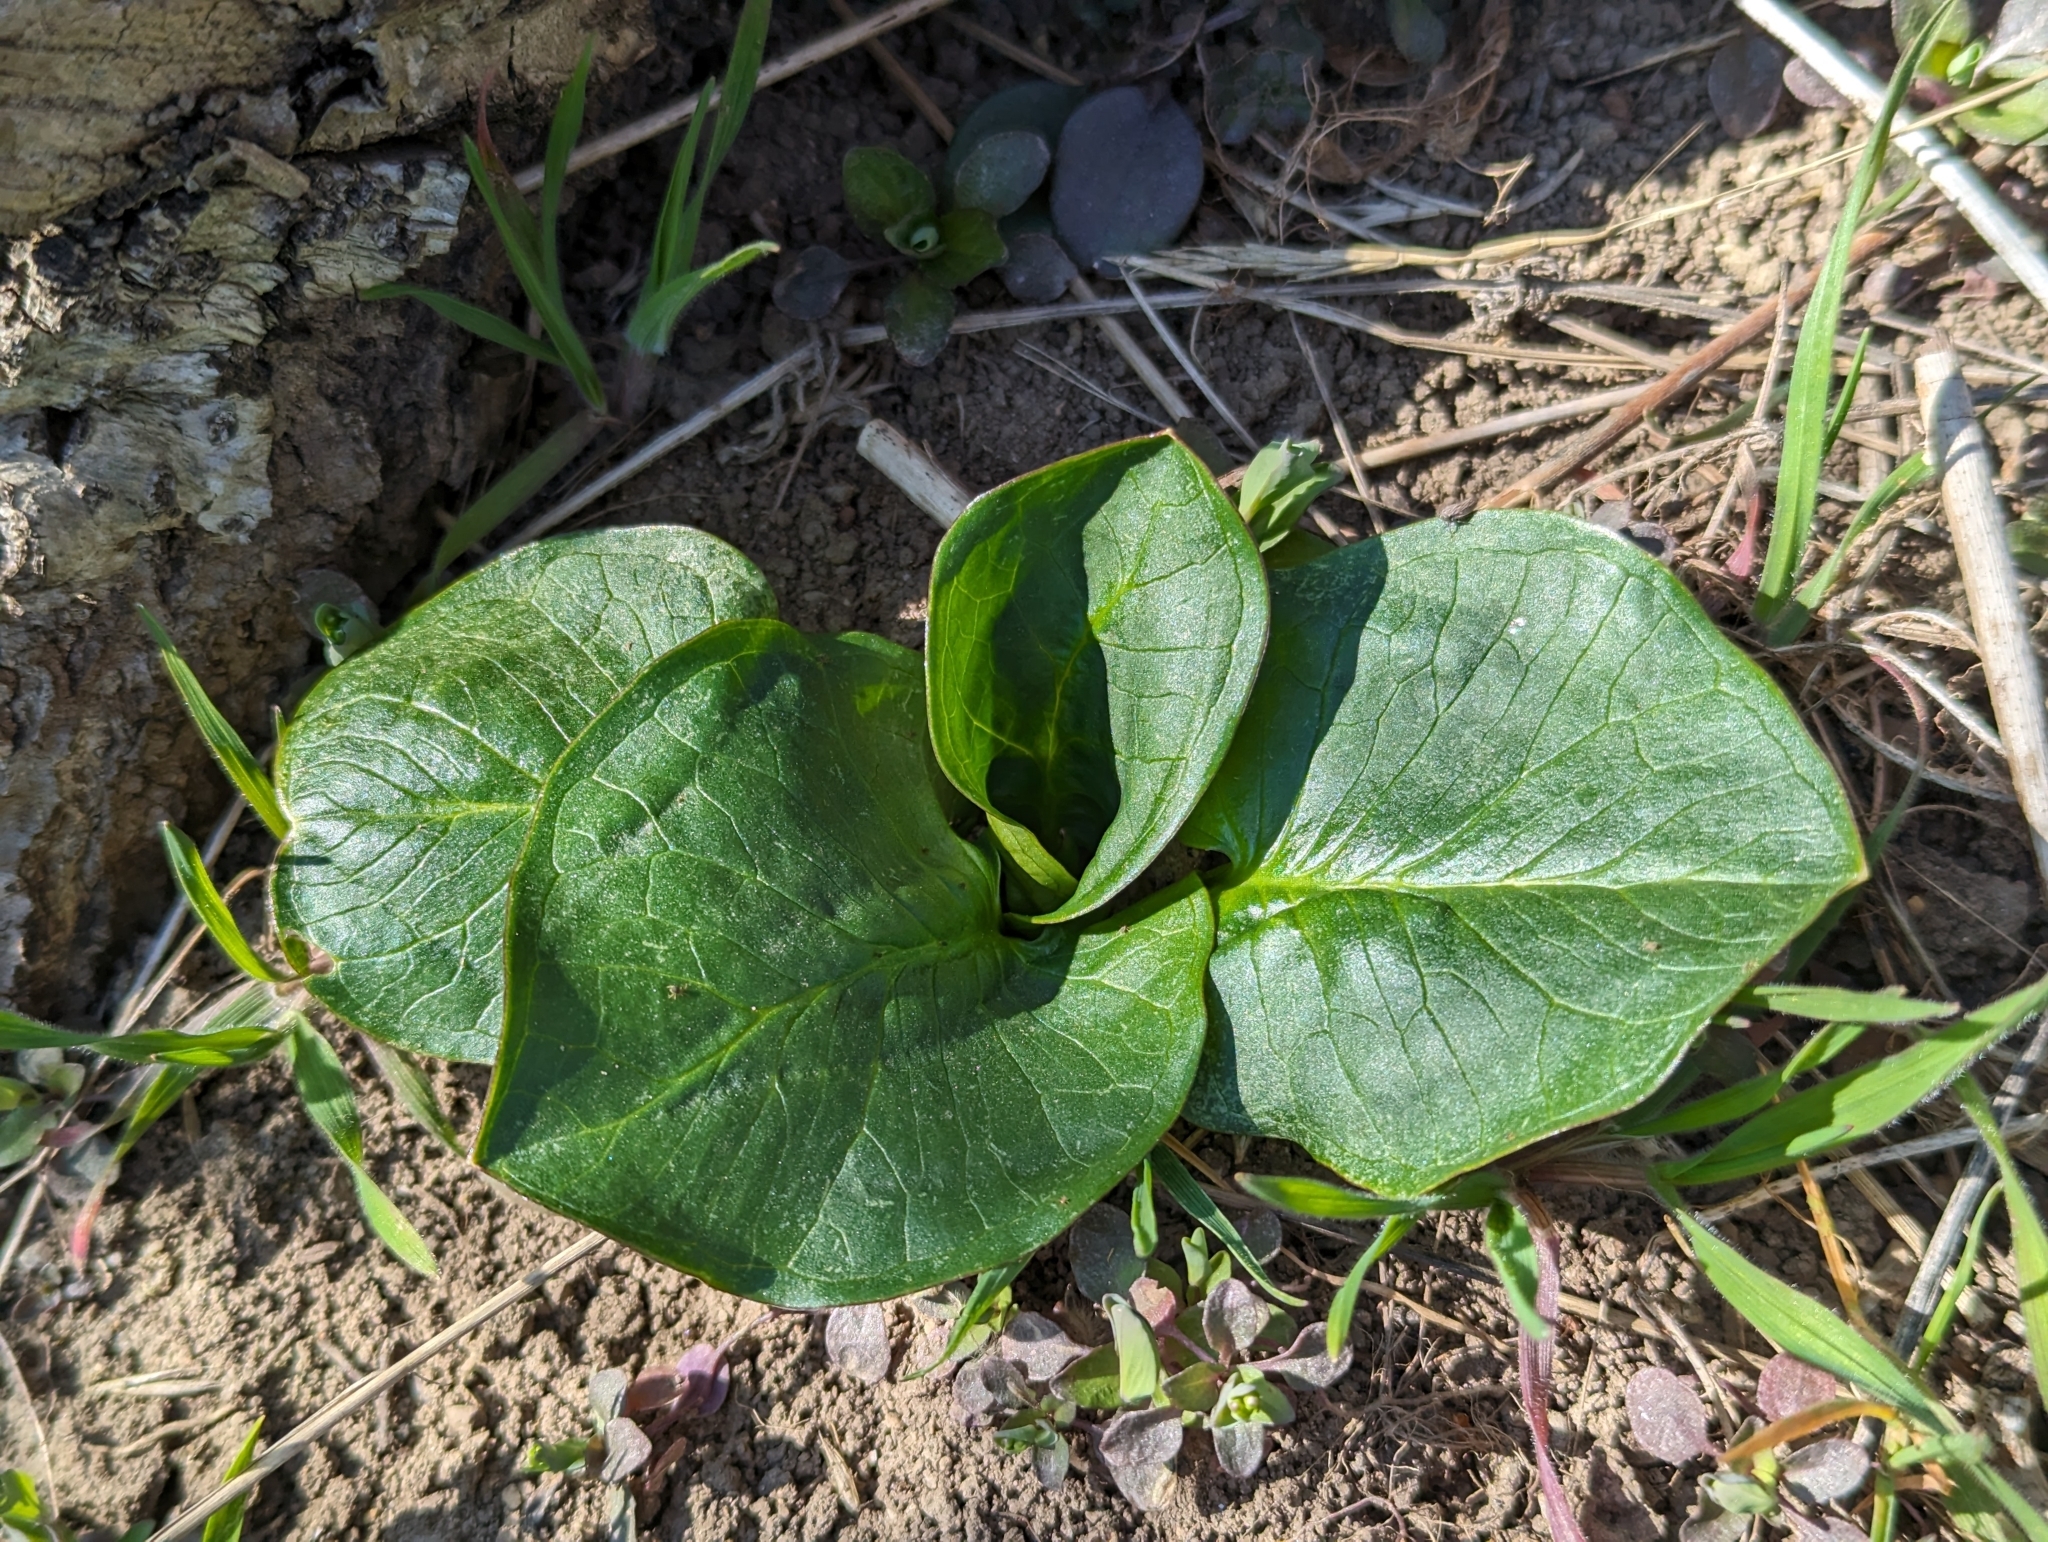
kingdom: Plantae
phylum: Tracheophyta
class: Liliopsida
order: Alismatales
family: Araceae
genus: Arum
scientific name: Arum cylindraceum
